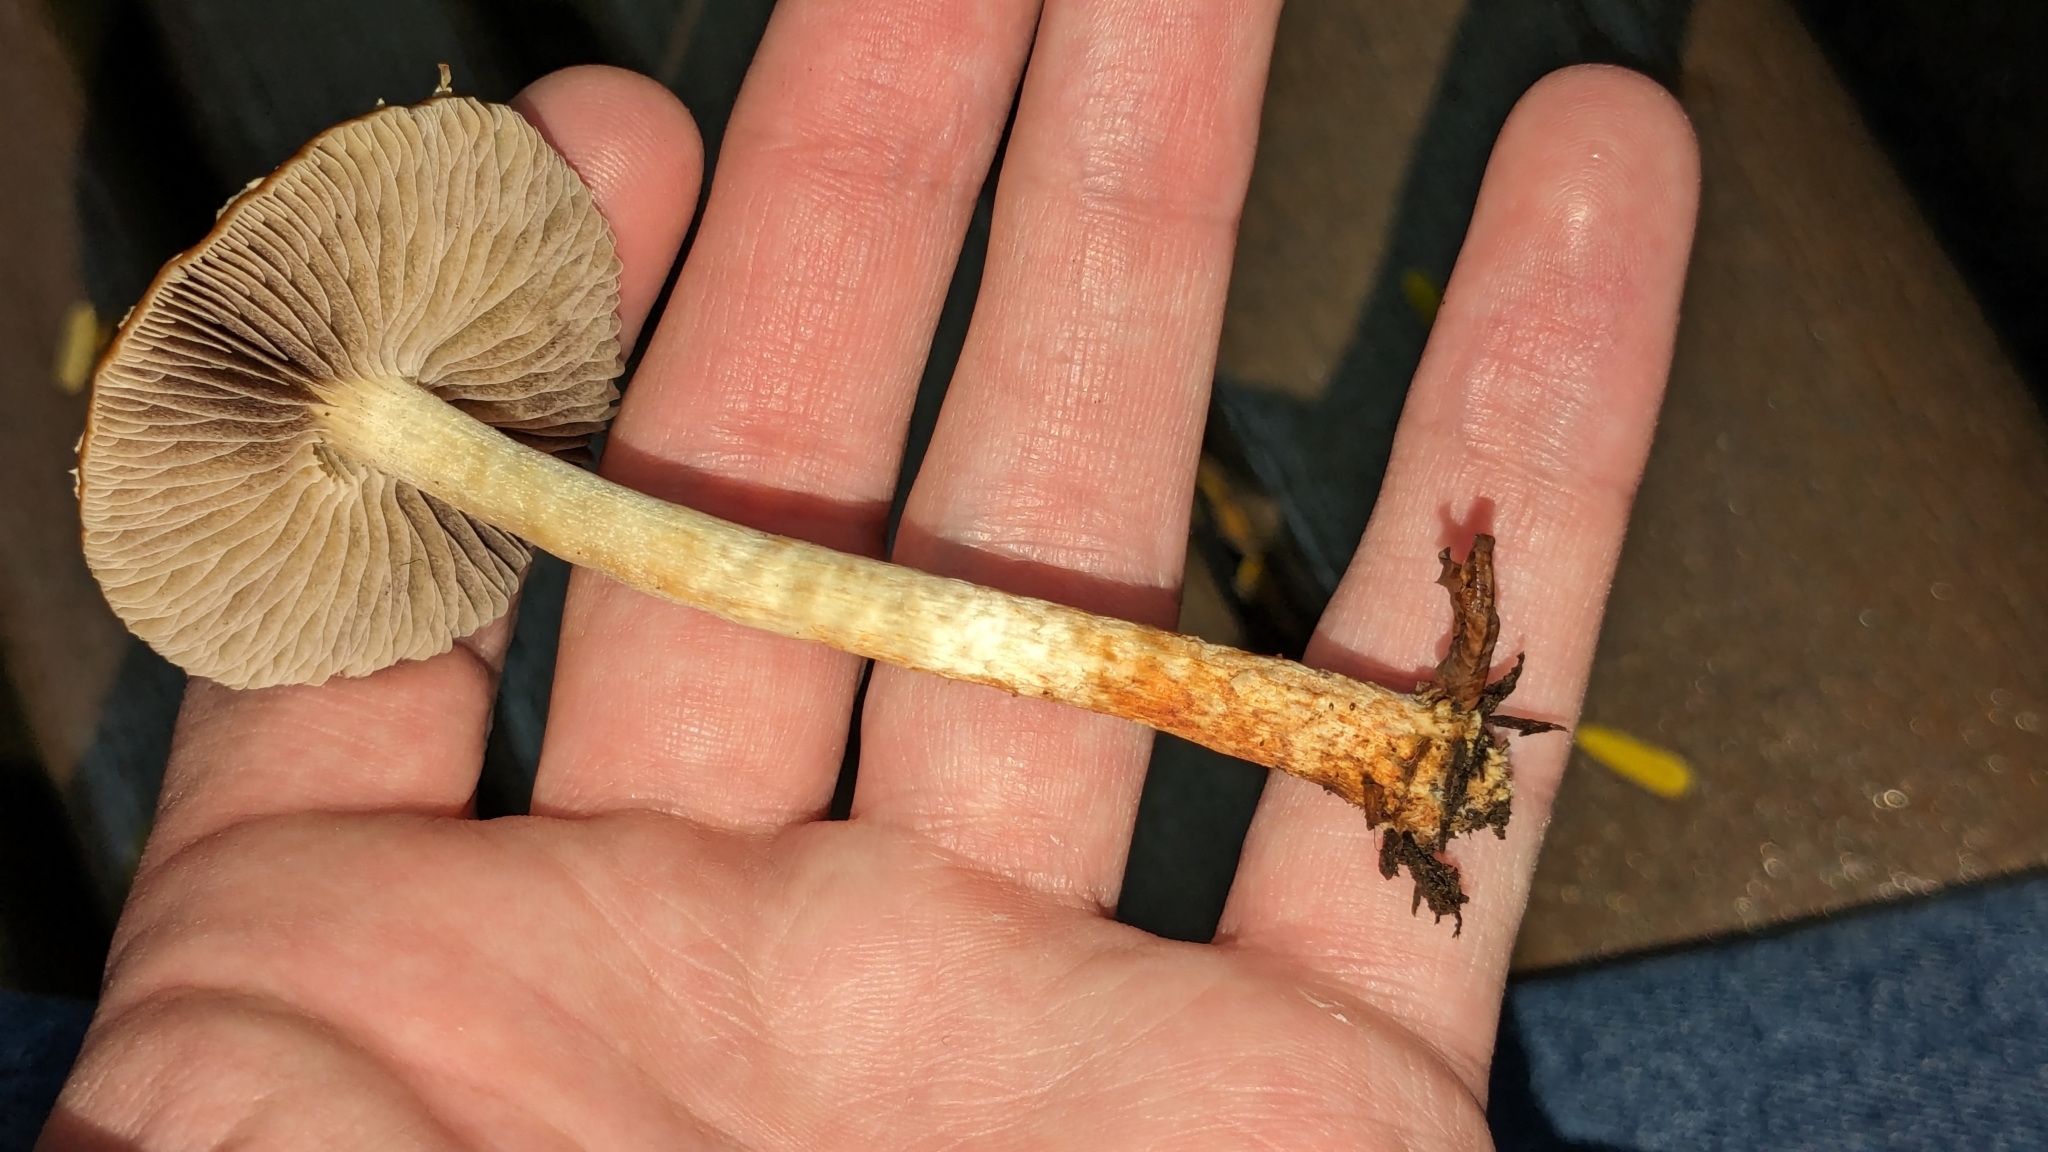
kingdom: Fungi
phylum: Basidiomycota
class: Agaricomycetes
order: Agaricales
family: Strophariaceae
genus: Leratiomyces
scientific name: Leratiomyces ceres
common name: Redlead roundhead
